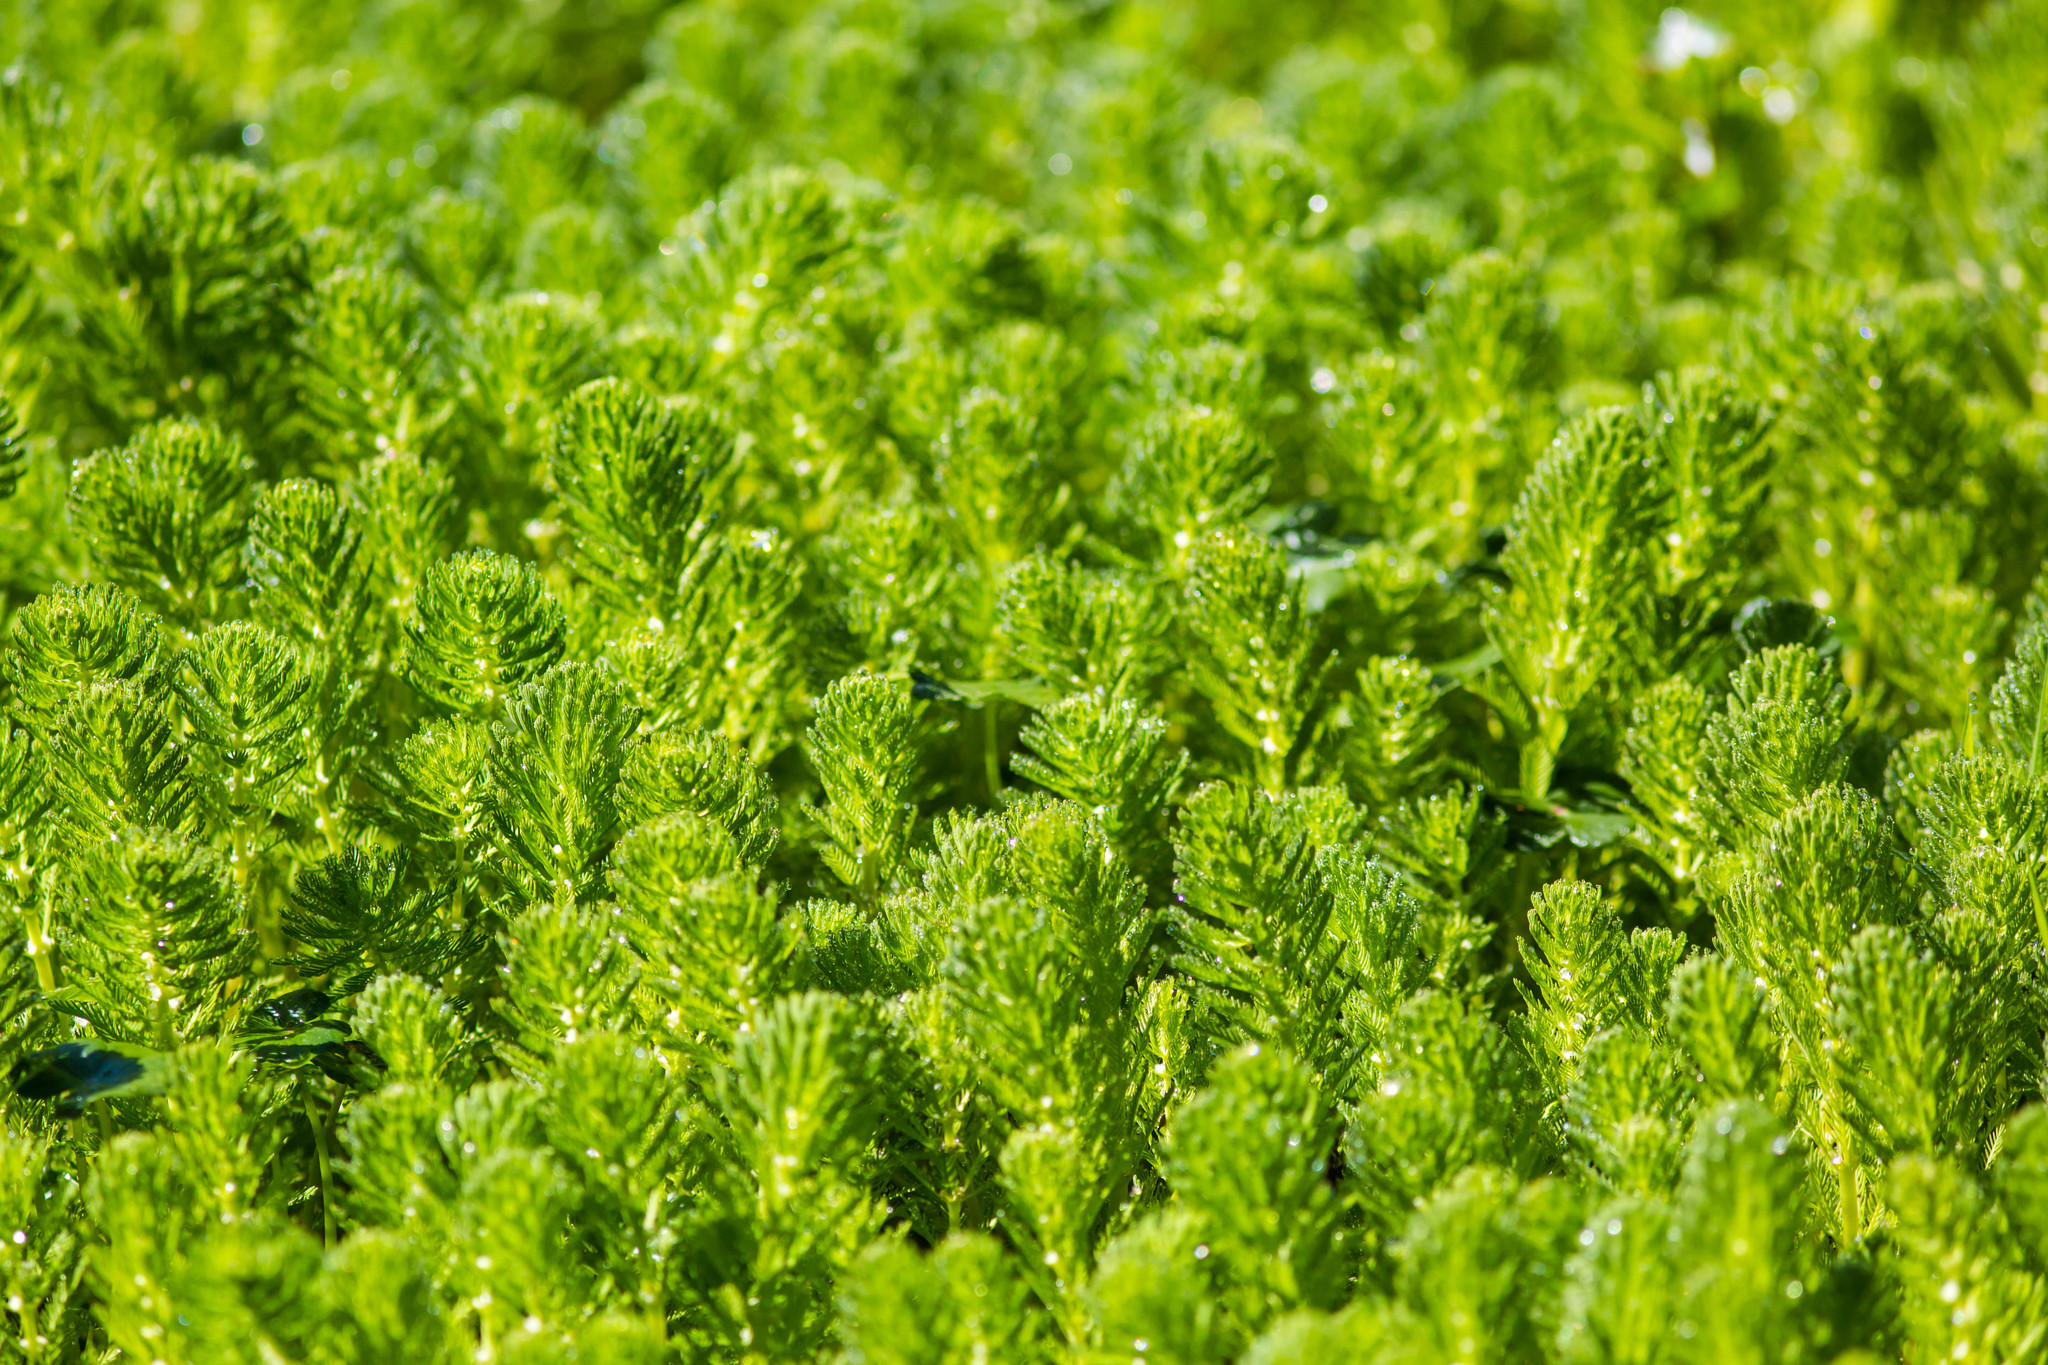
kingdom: Plantae
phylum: Tracheophyta
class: Magnoliopsida
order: Saxifragales
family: Haloragaceae
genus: Myriophyllum
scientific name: Myriophyllum aquaticum
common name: Parrot's feather
